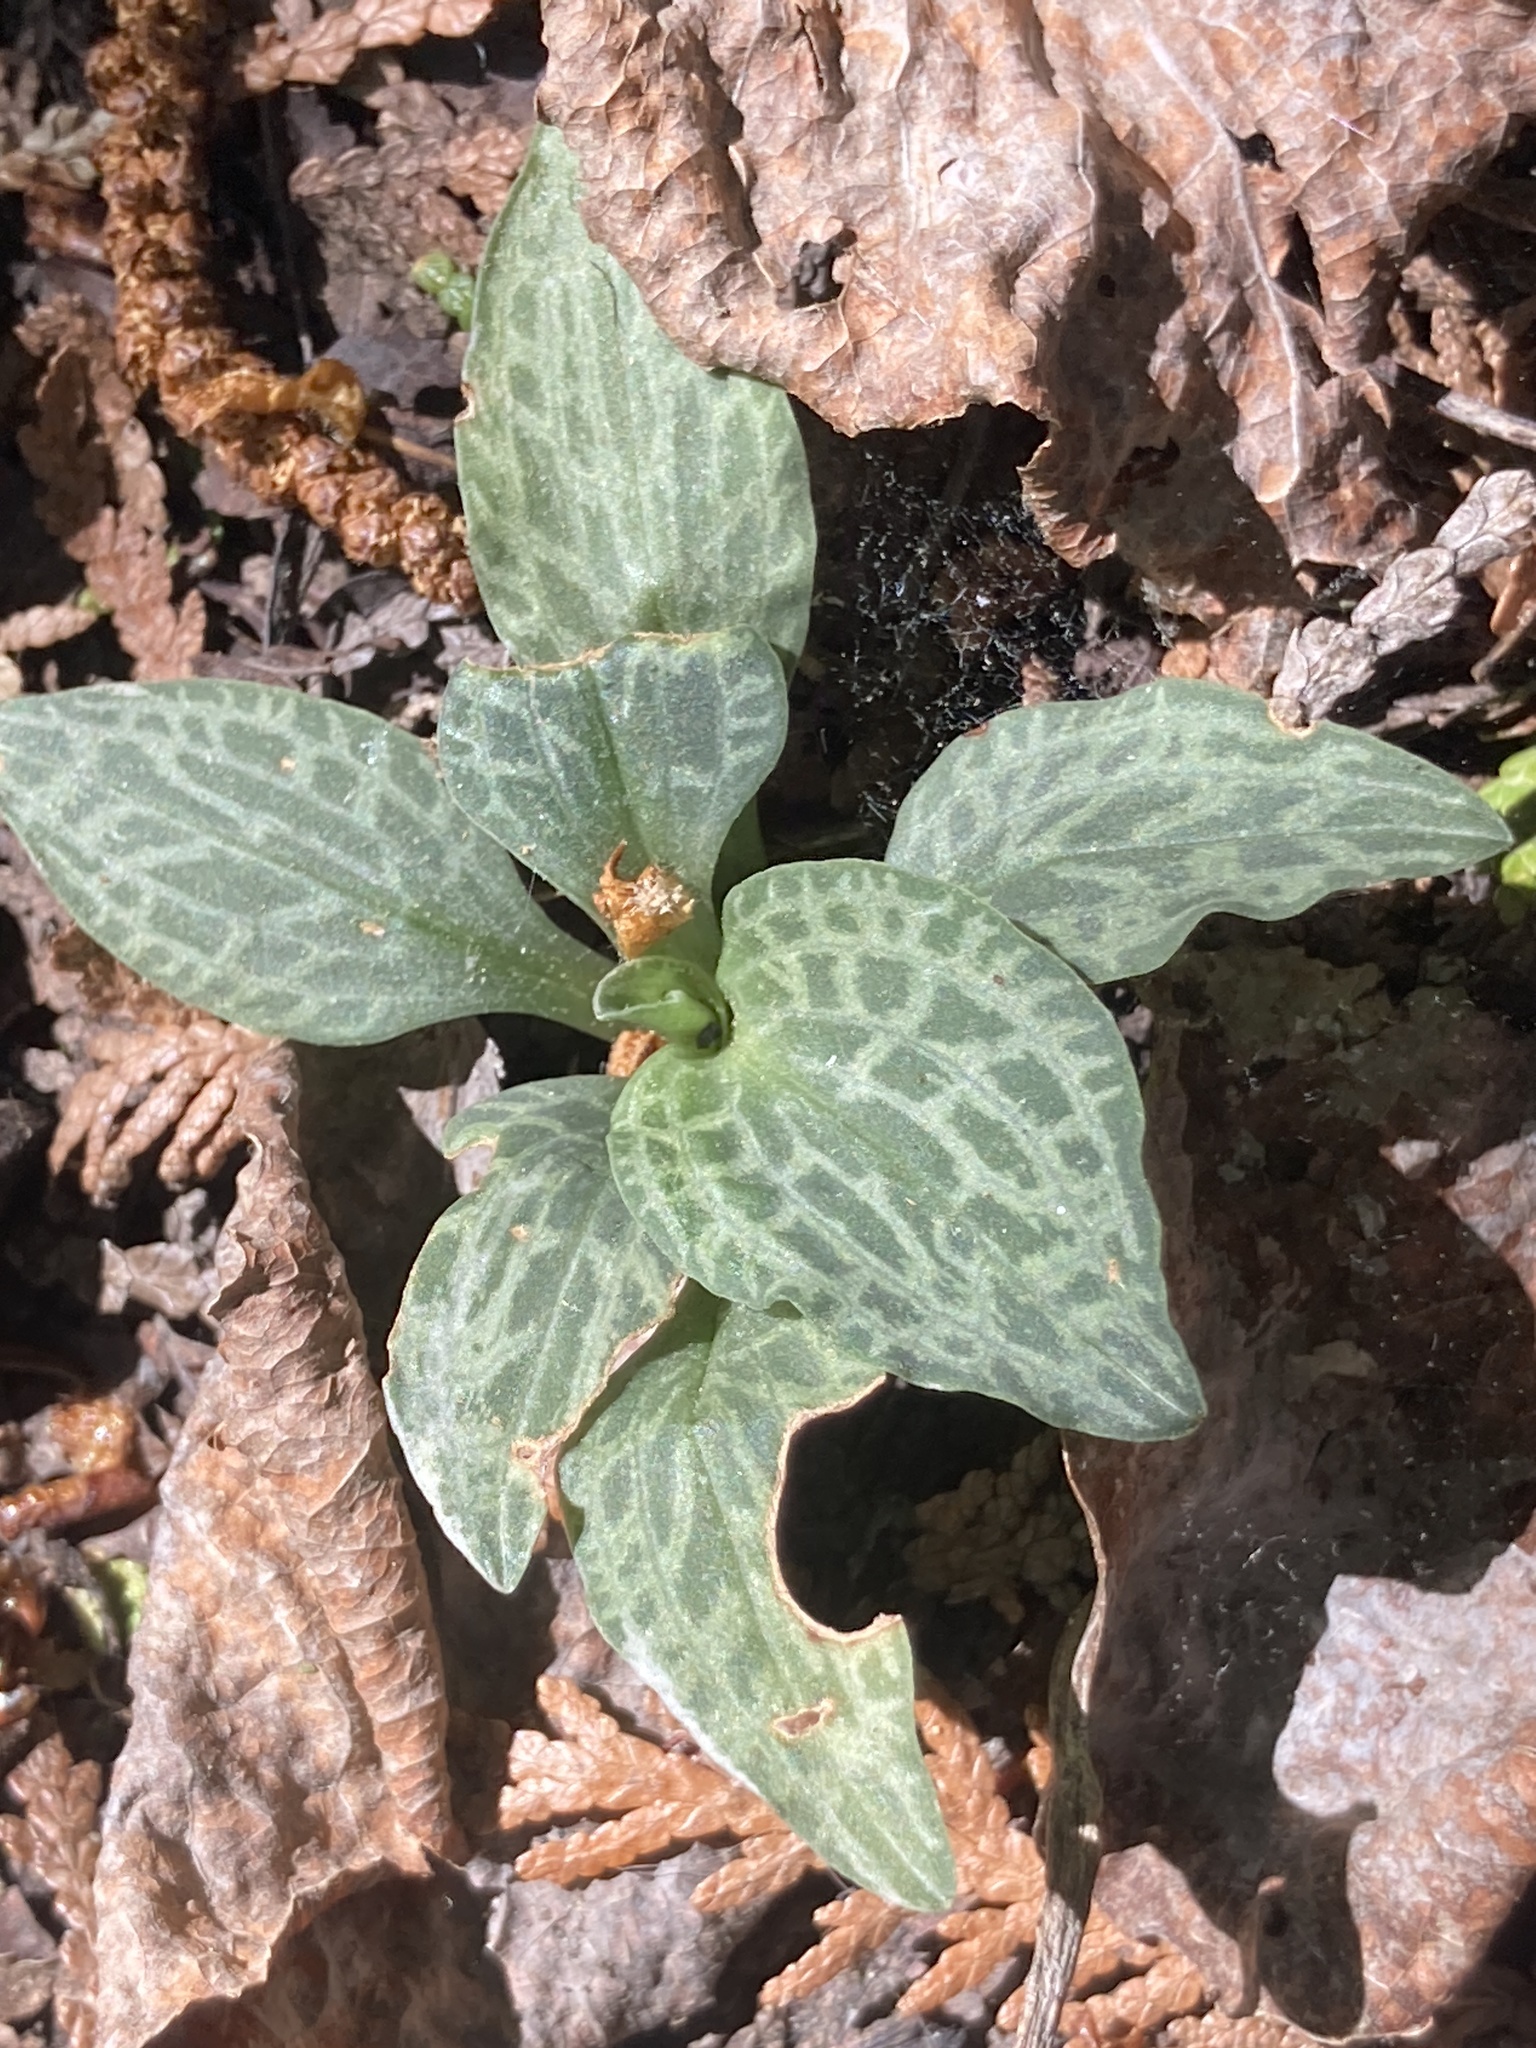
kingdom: Plantae
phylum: Tracheophyta
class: Liliopsida
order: Asparagales
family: Orchidaceae
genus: Goodyera
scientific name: Goodyera tesselata
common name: Checkered rattlesnake-plantain
